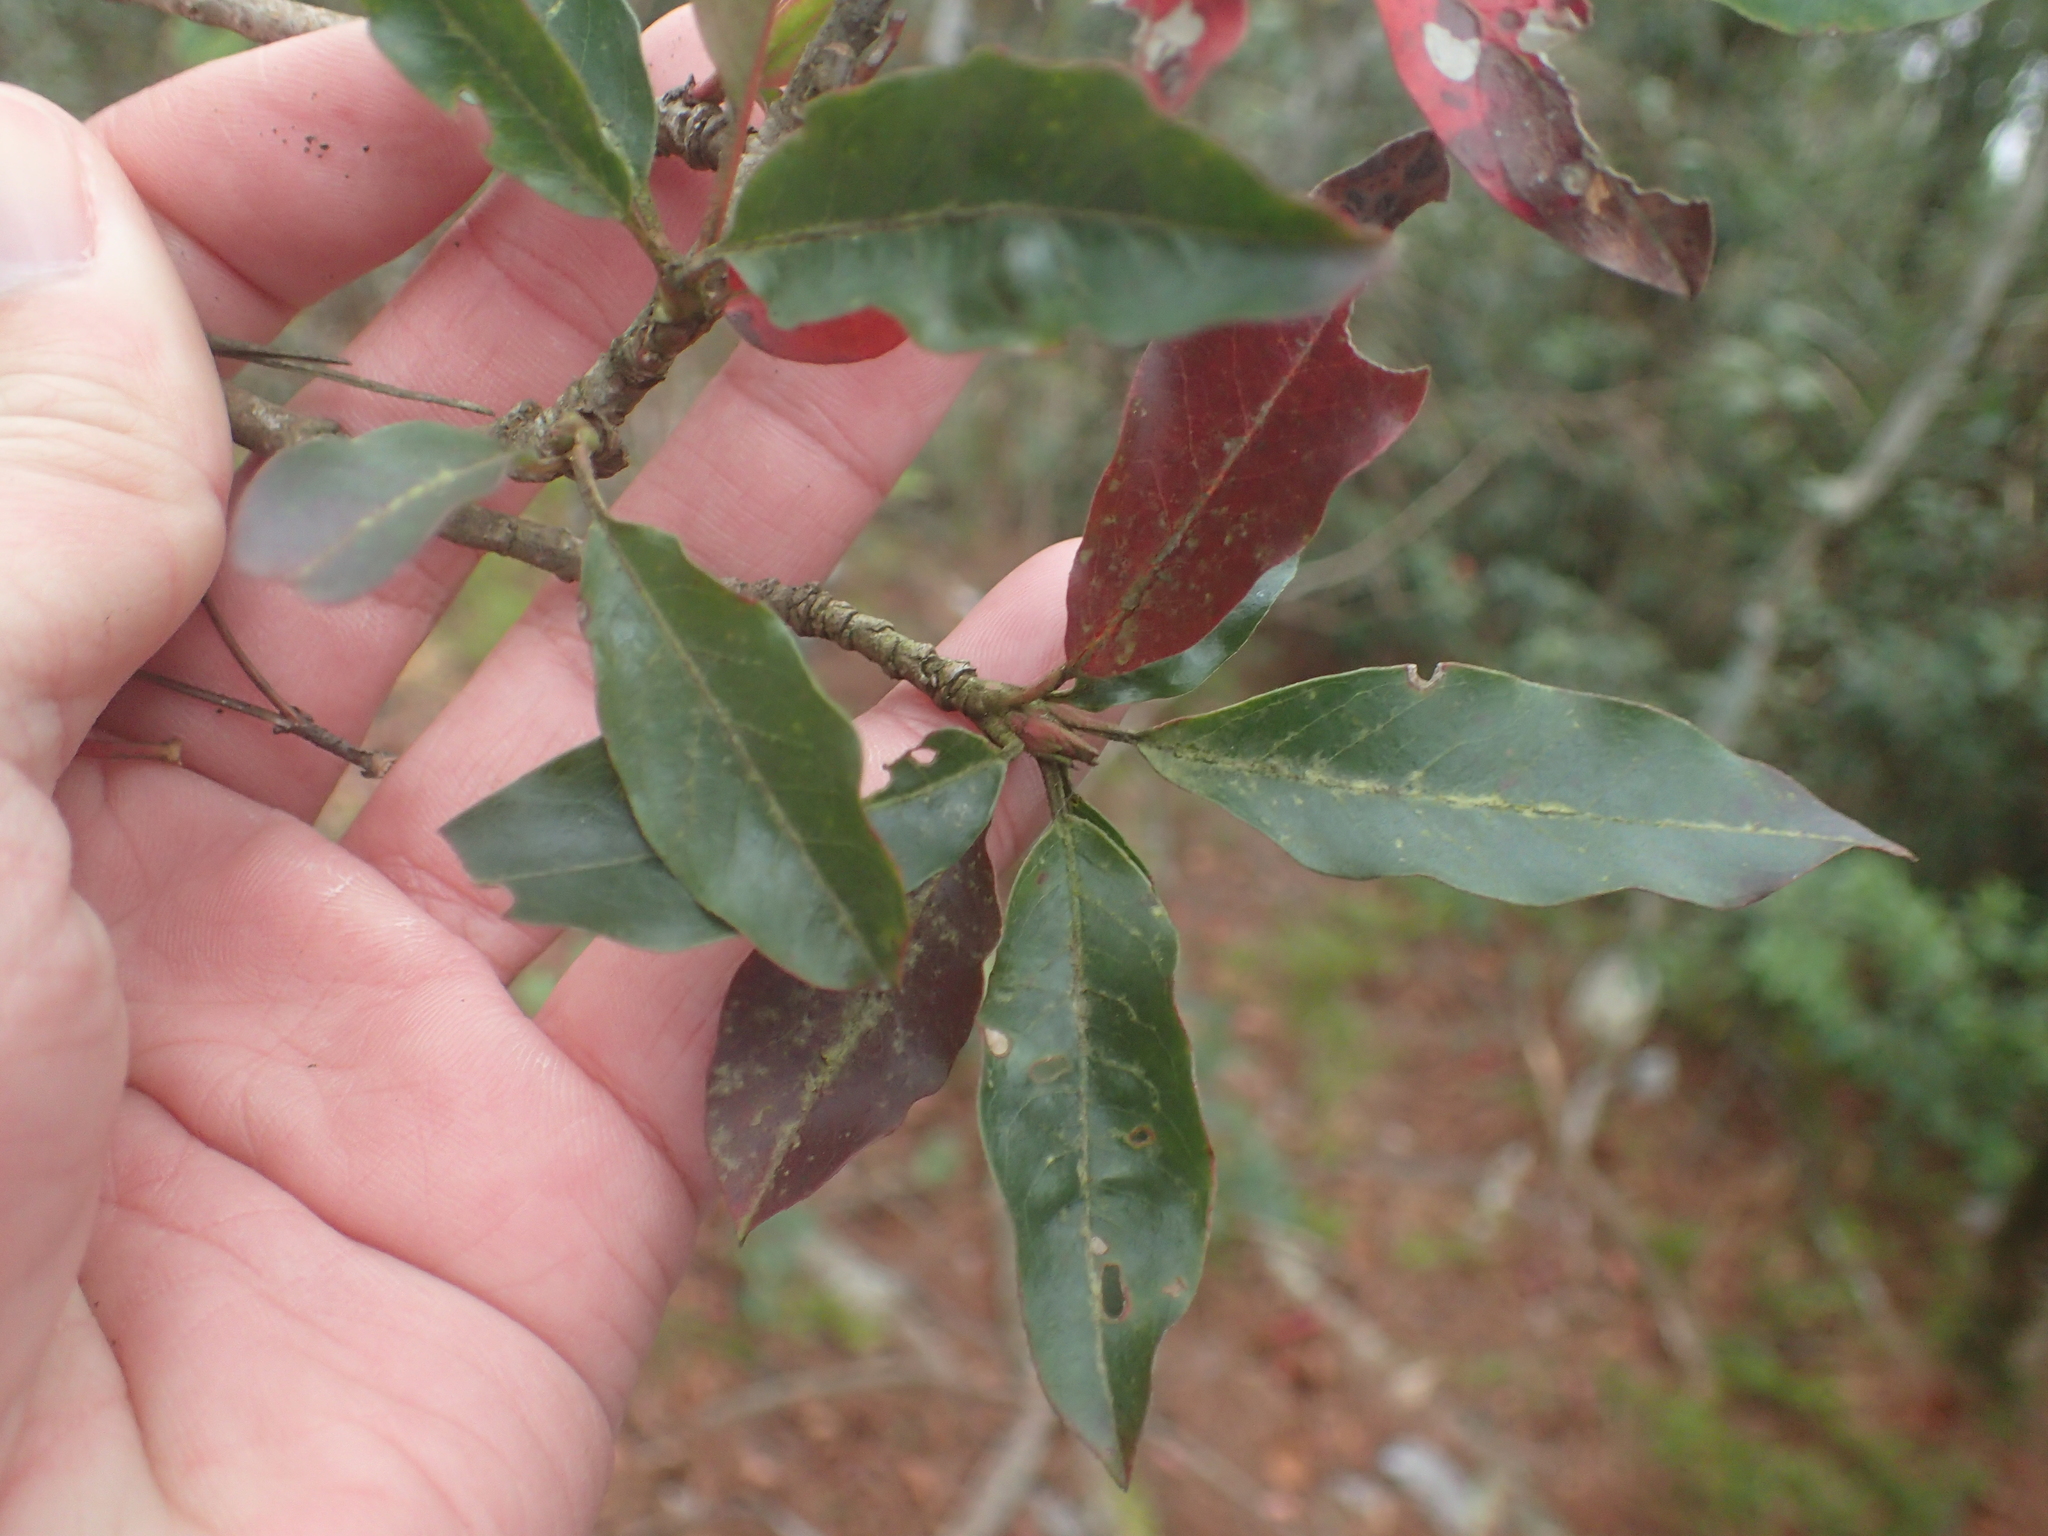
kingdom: Plantae
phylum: Tracheophyta
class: Magnoliopsida
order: Rosales
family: Rosaceae
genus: Stranvaesia
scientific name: Stranvaesia davidiana
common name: Chinese photinia
